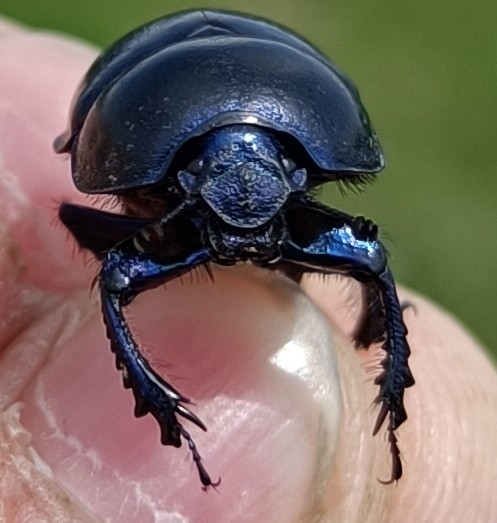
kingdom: Animalia
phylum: Arthropoda
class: Insecta
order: Coleoptera
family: Geotrupidae
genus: Trypocopris
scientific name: Trypocopris vernalis
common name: Spring dumbledor
